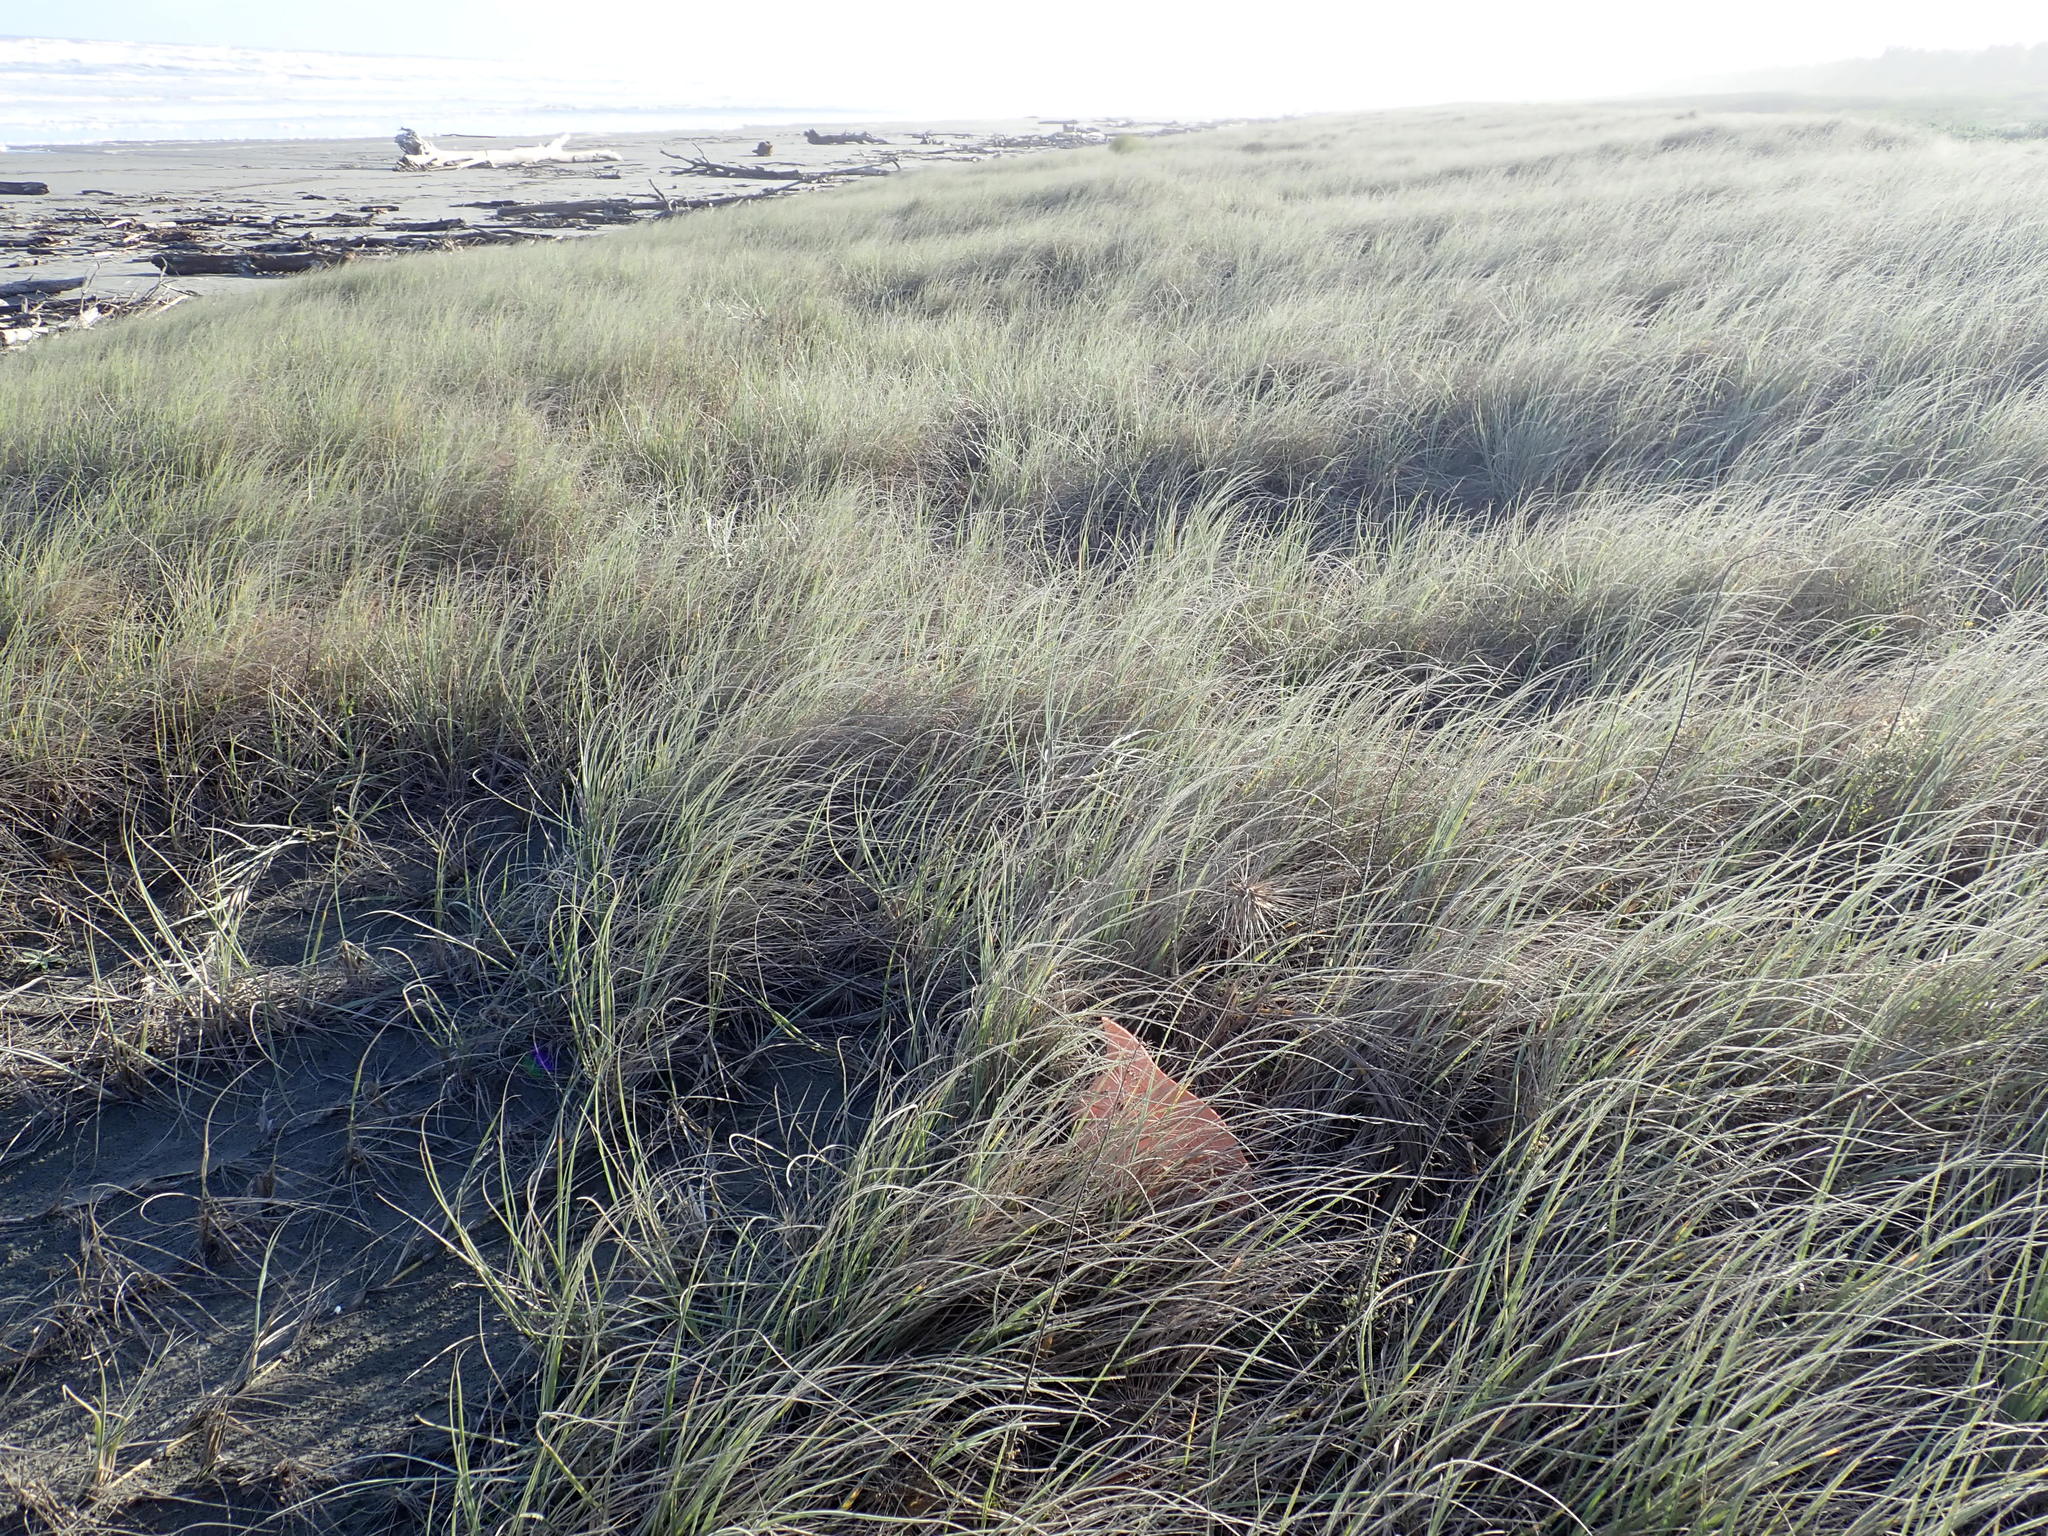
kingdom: Animalia
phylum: Arthropoda
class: Arachnida
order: Araneae
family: Mimetidae
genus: Australomimetus
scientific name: Australomimetus hartleyensis
